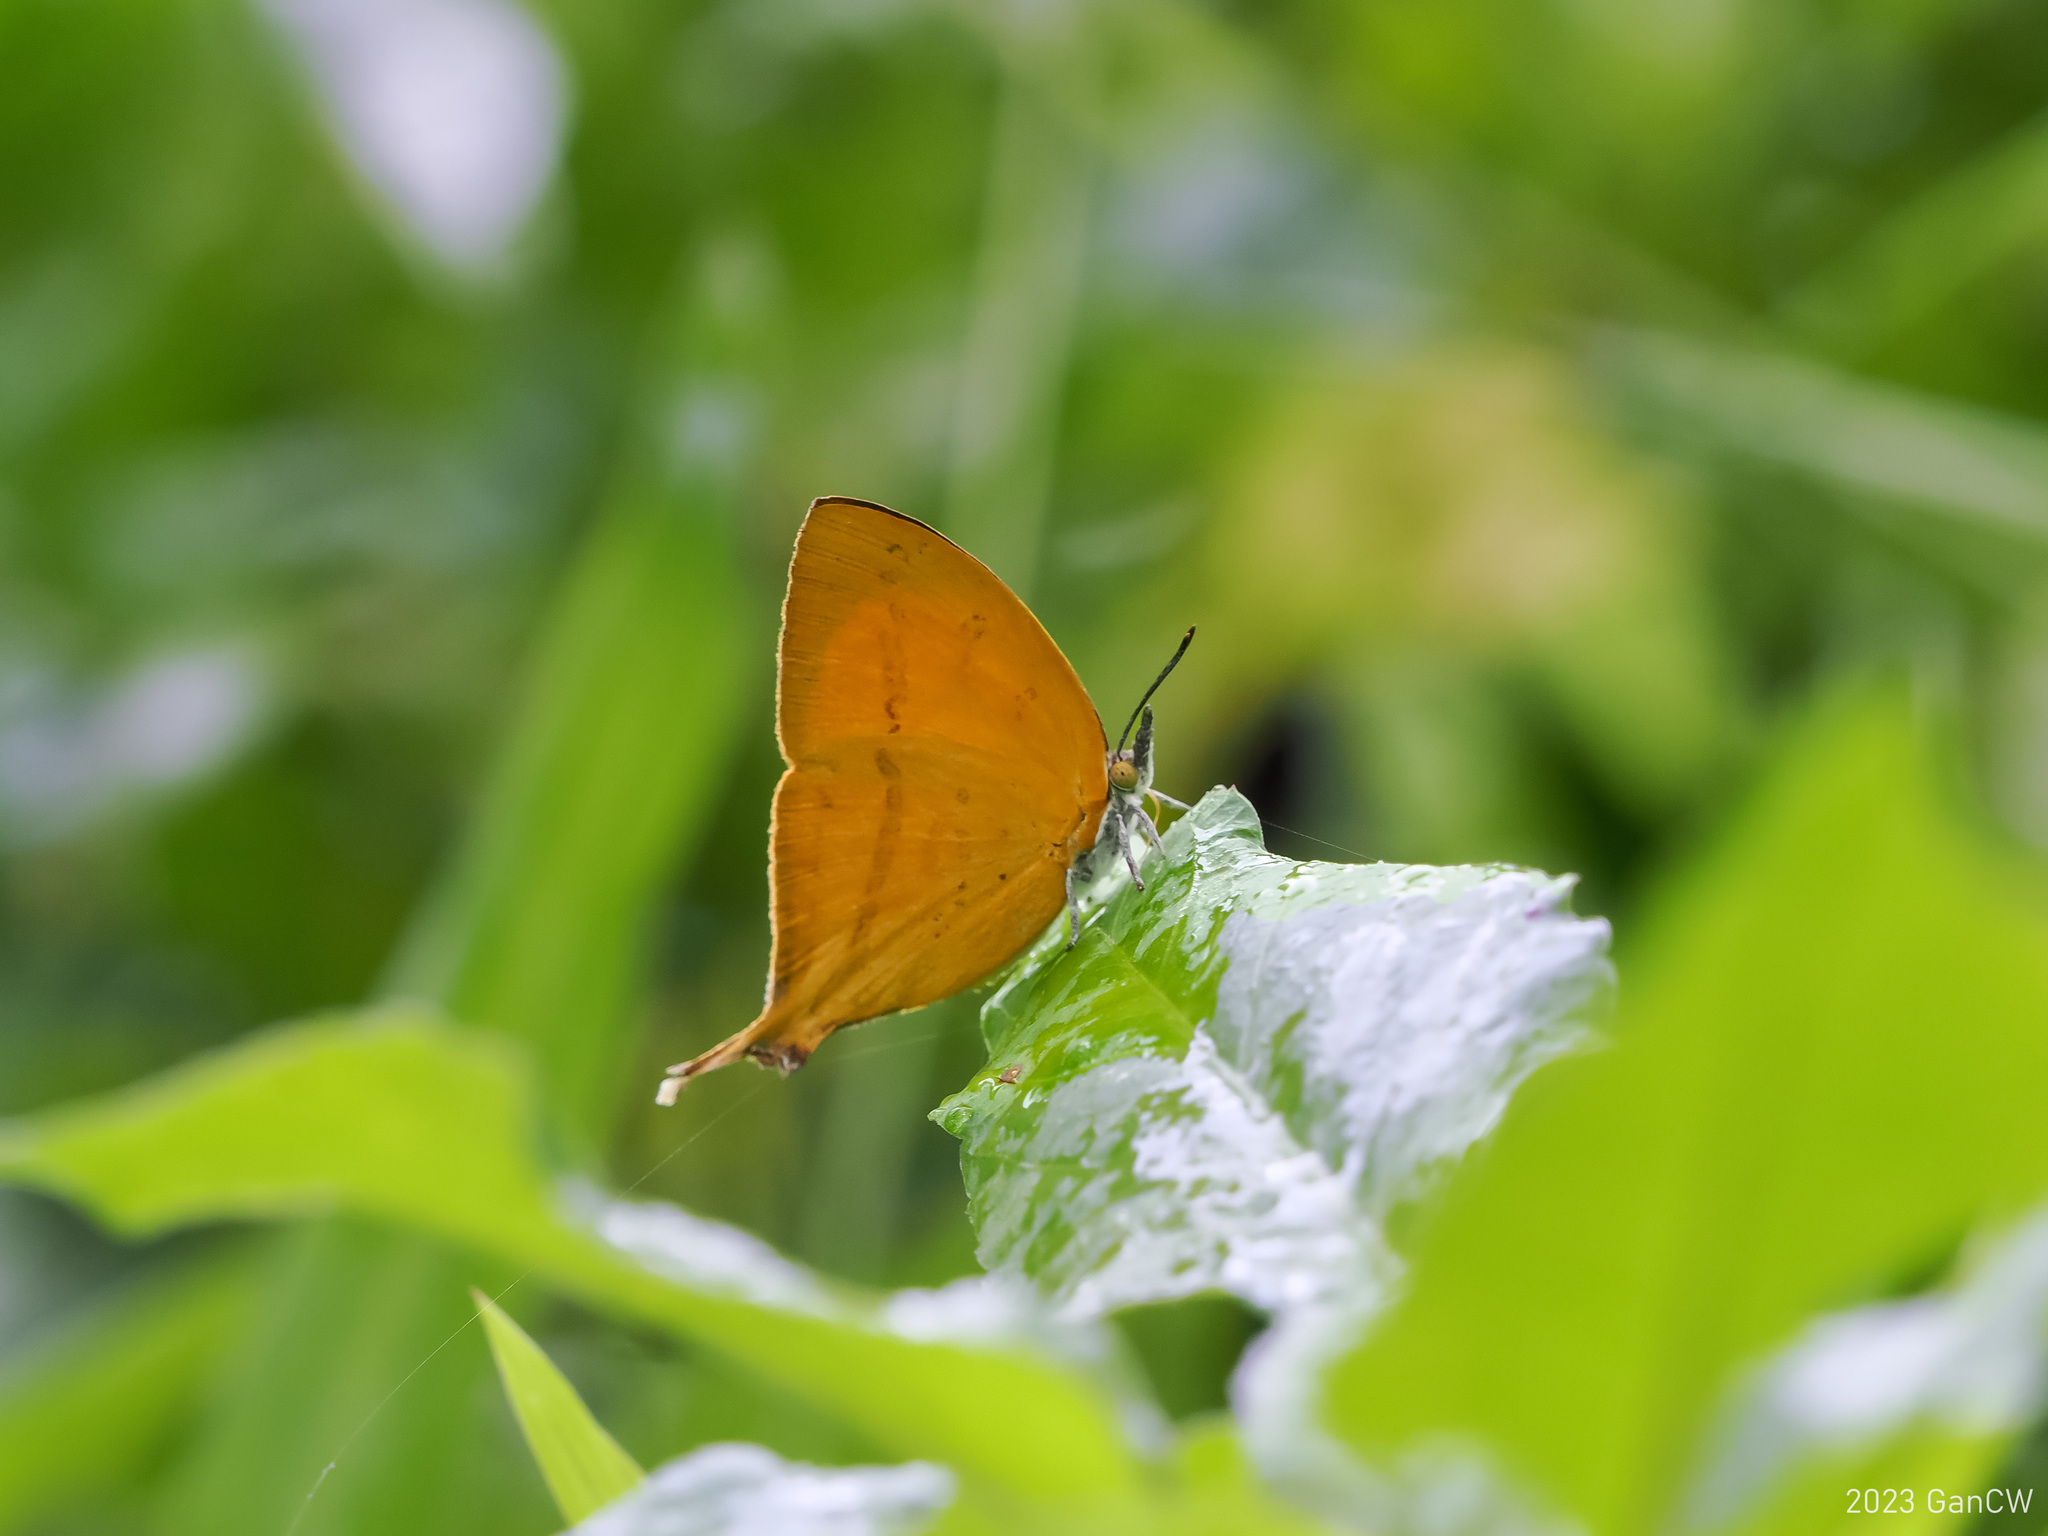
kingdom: Animalia
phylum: Arthropoda
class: Insecta
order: Lepidoptera
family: Lycaenidae
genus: Loxura
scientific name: Loxura atymnus
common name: Common yamfly
